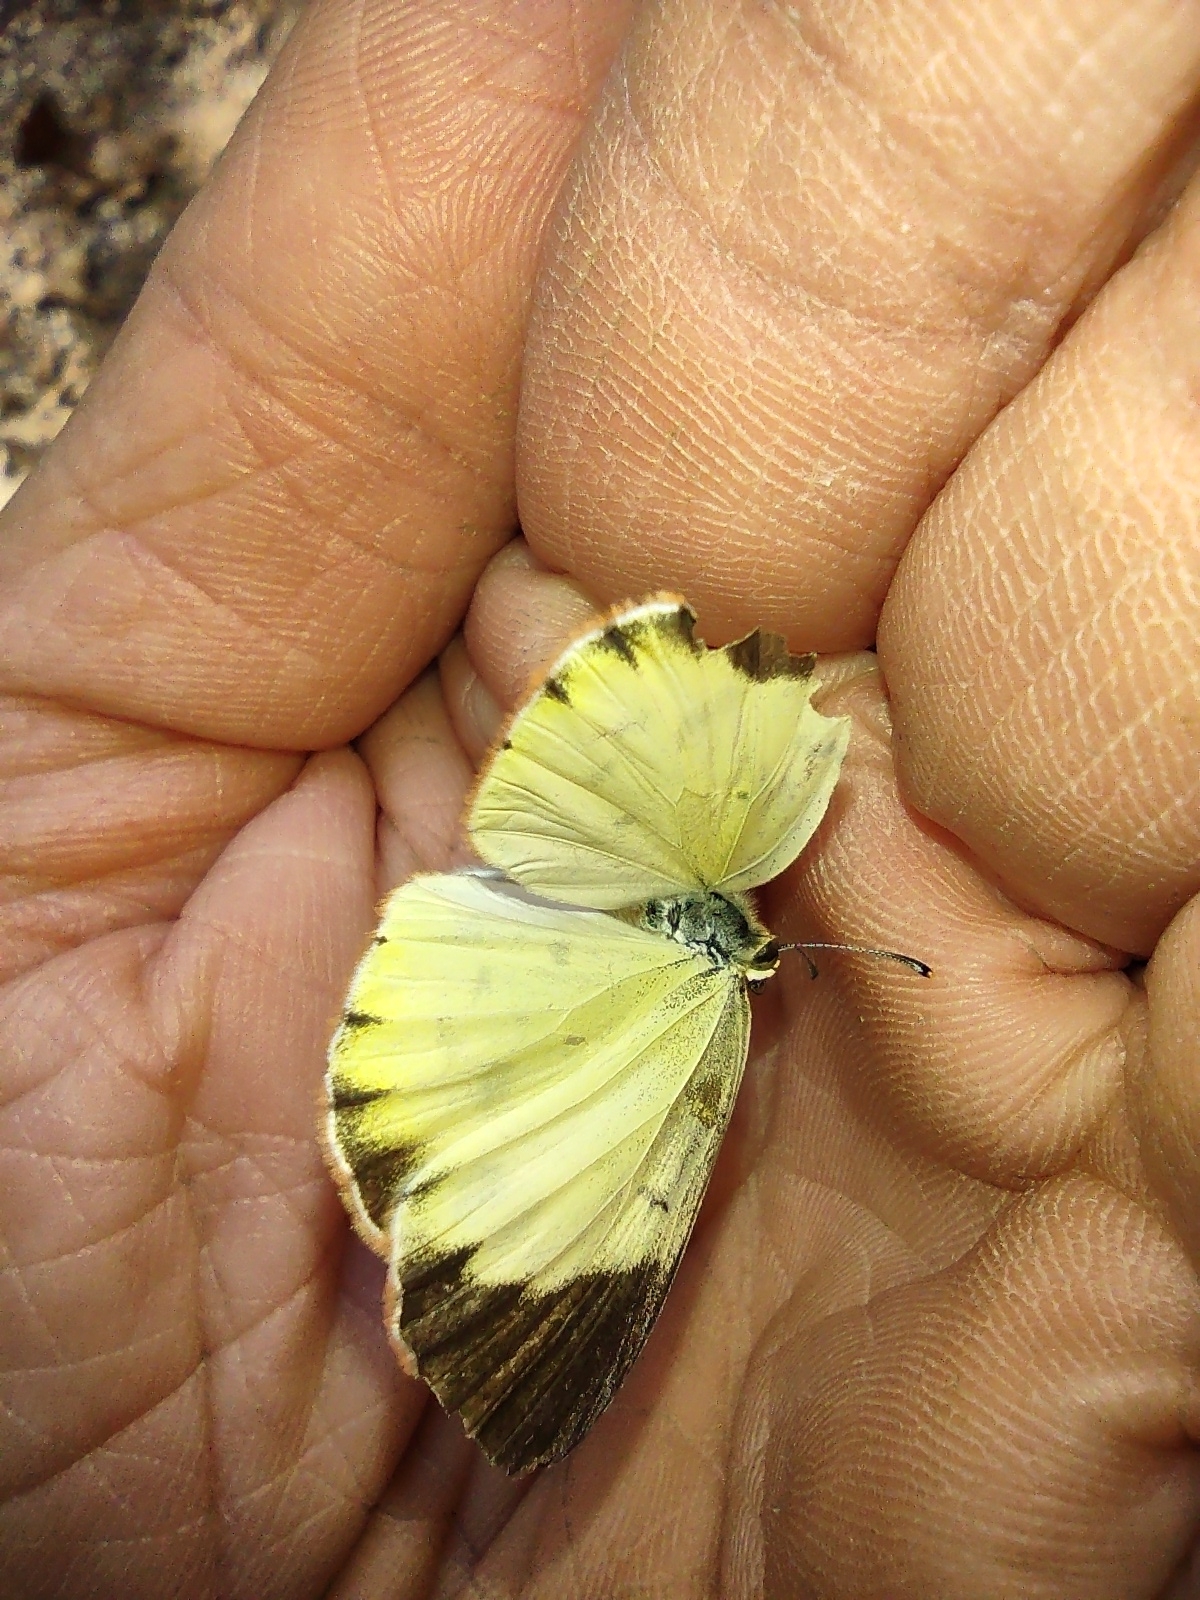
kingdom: Animalia
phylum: Arthropoda
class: Insecta
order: Lepidoptera
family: Pieridae
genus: Pyrisitia
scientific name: Pyrisitia lisa
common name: Little yellow
